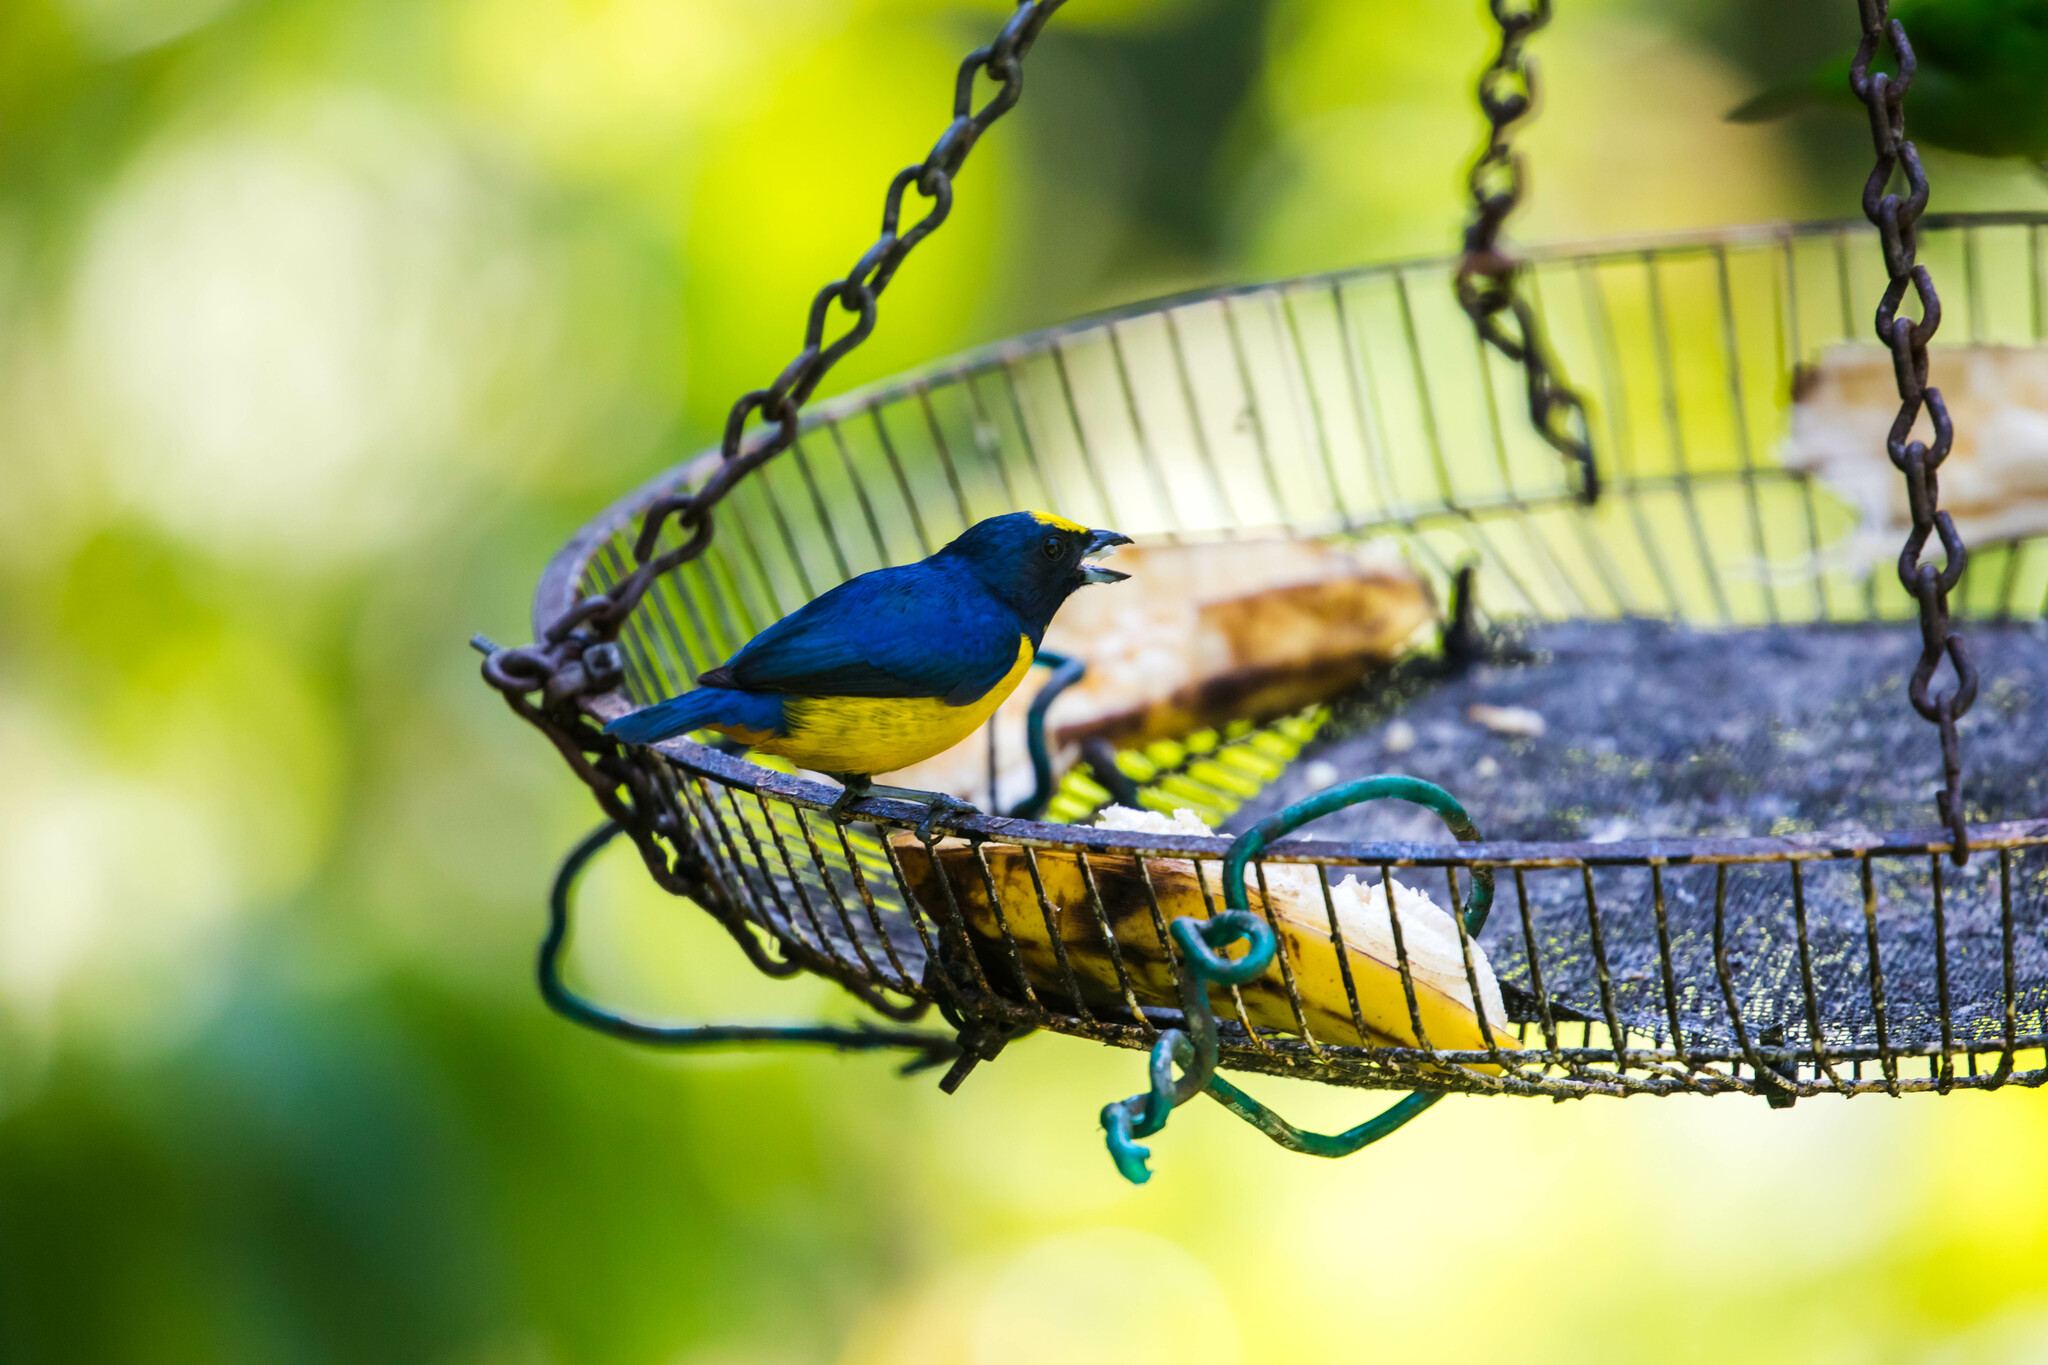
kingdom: Animalia
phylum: Chordata
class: Aves
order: Passeriformes
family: Fringillidae
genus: Euphonia
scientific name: Euphonia fulvicrissa
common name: Fulvous-vented euphonia
